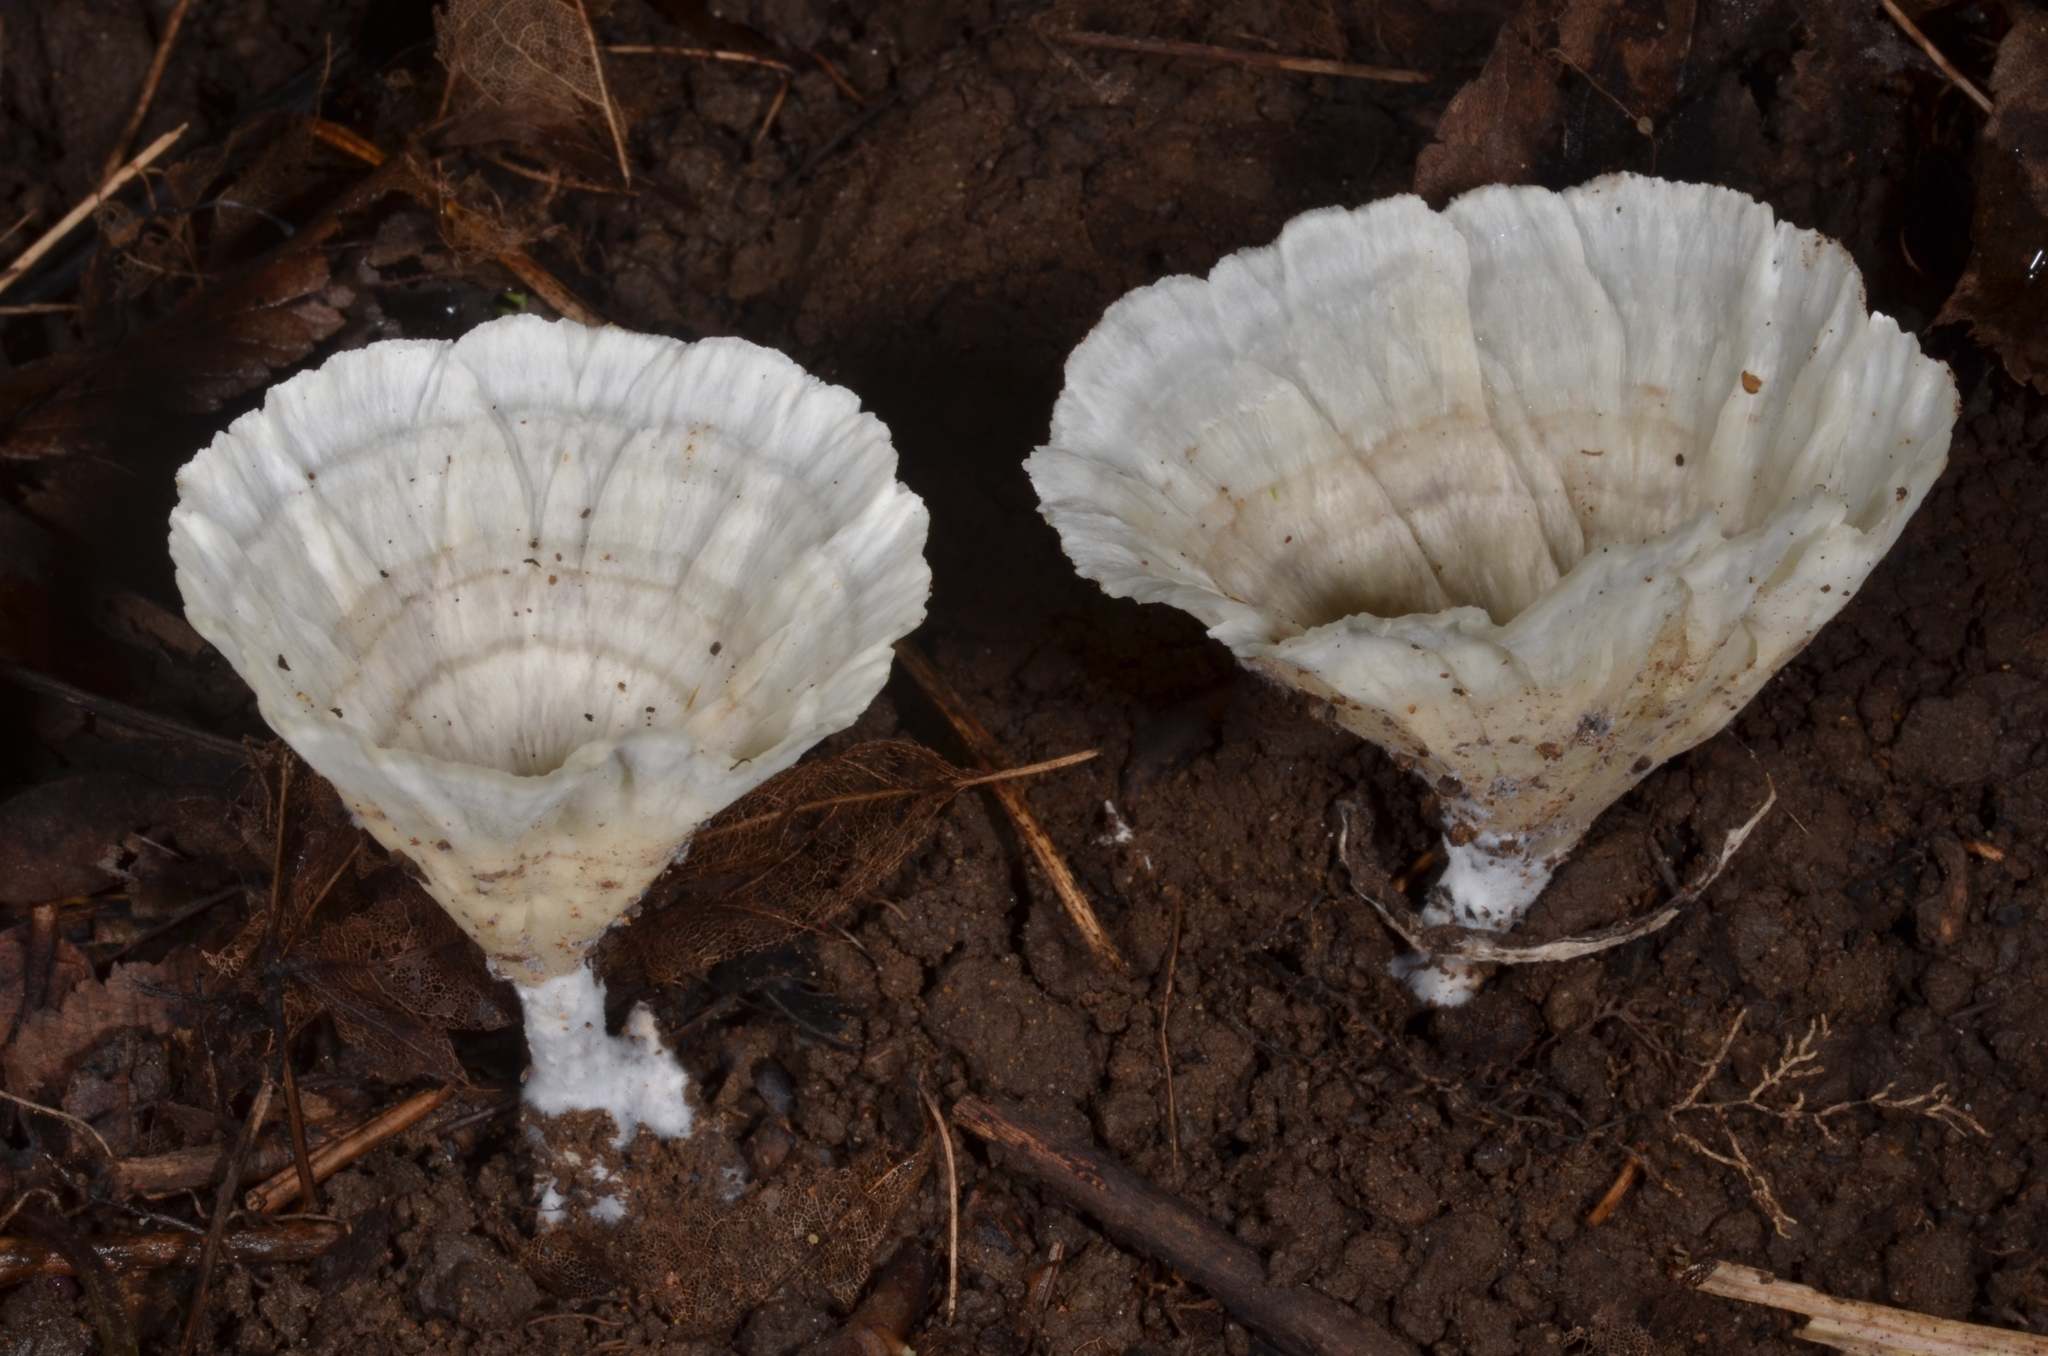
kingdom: Fungi
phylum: Basidiomycota
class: Agaricomycetes
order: Hymenochaetales
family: Rickenellaceae
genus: Cotylidia
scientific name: Cotylidia diaphana
